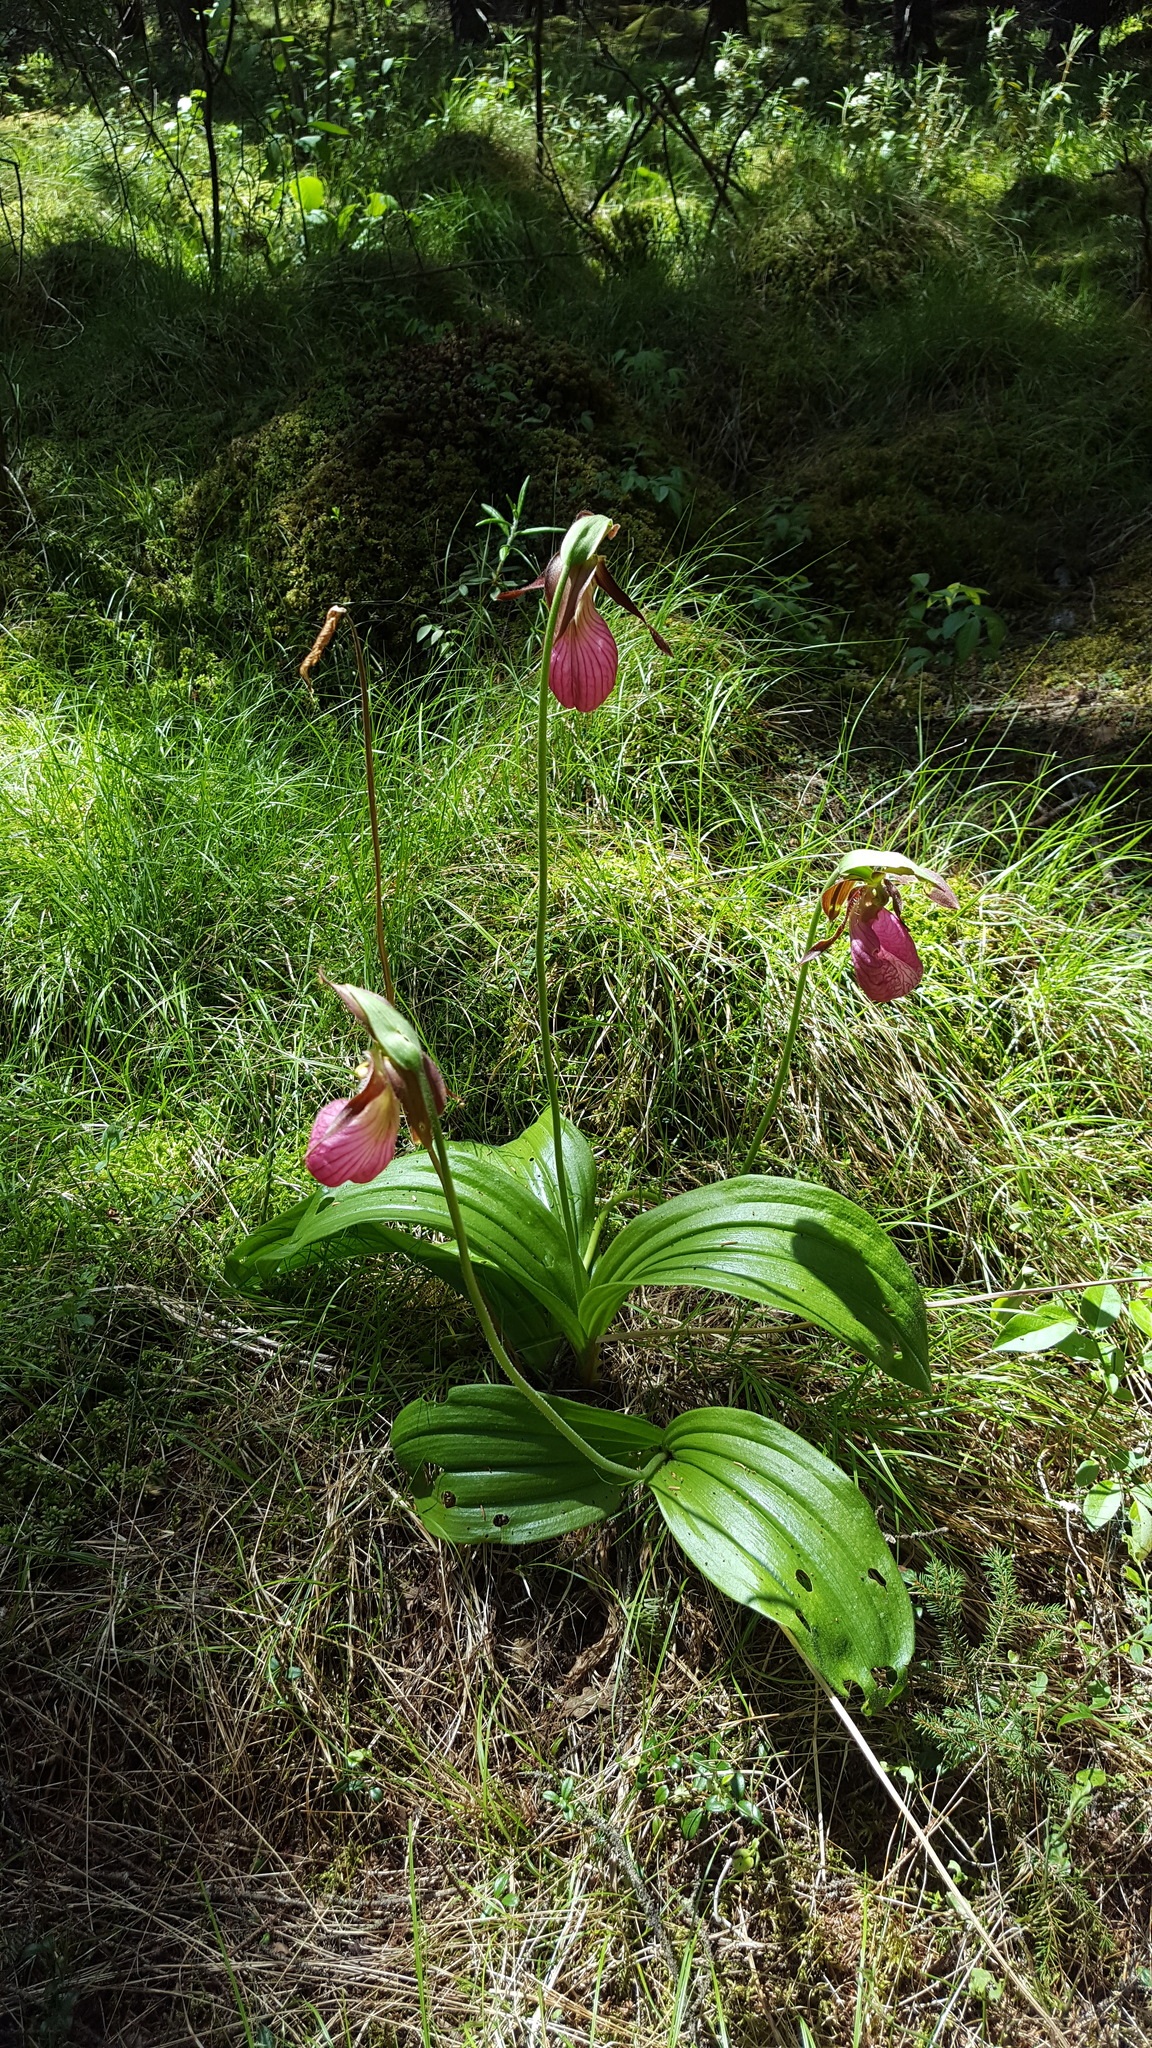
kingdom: Plantae
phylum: Tracheophyta
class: Liliopsida
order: Asparagales
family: Orchidaceae
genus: Cypripedium
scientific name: Cypripedium acaule
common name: Pink lady's-slipper
